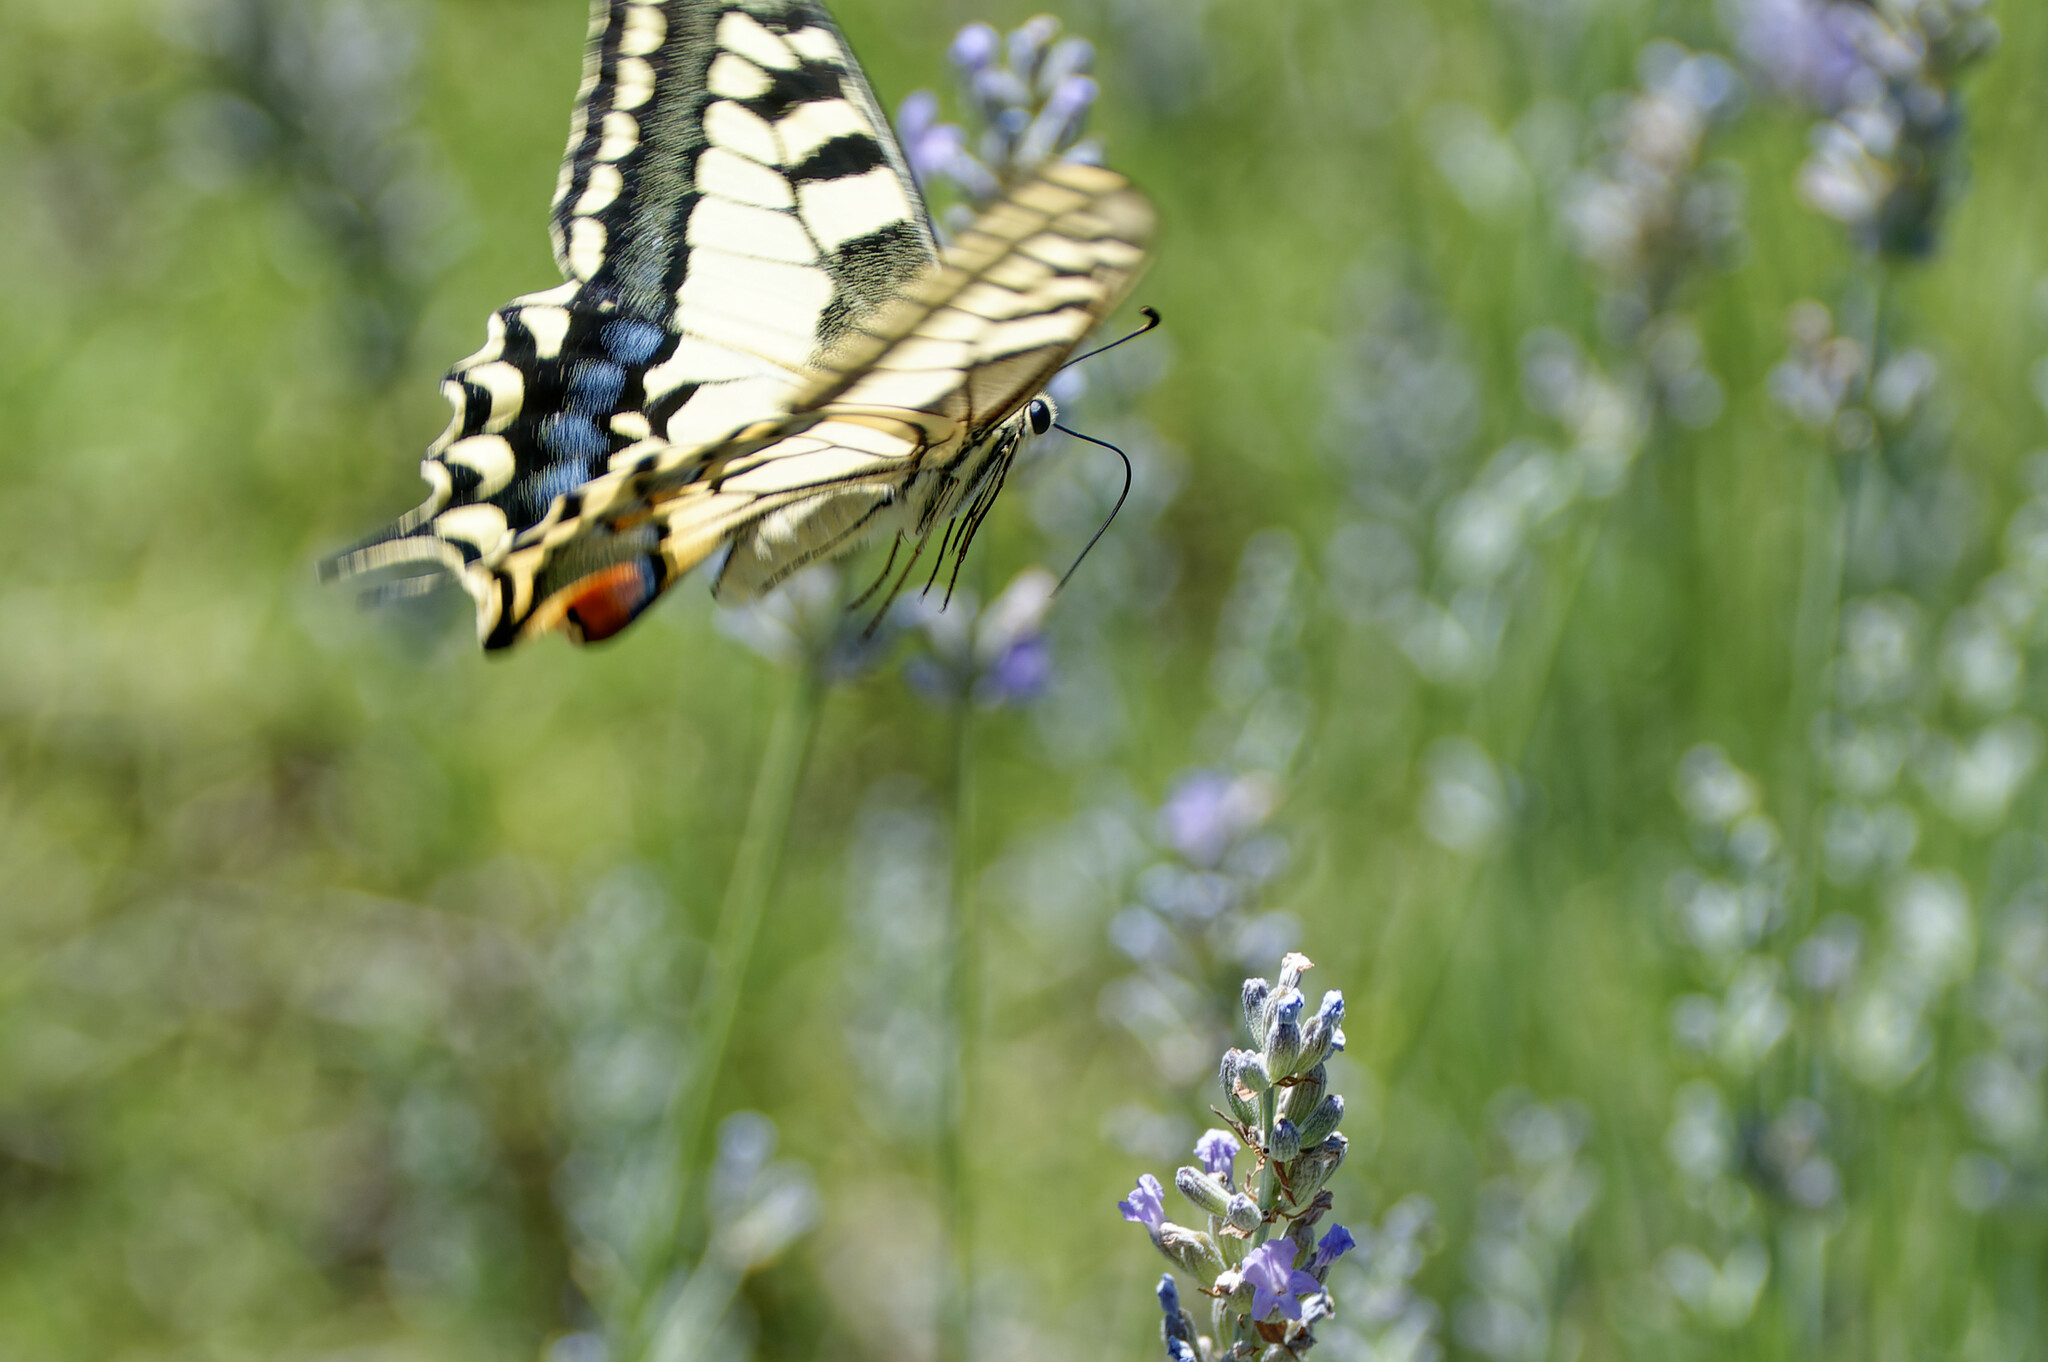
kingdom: Animalia
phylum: Arthropoda
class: Insecta
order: Lepidoptera
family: Papilionidae
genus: Papilio
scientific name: Papilio machaon
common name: Swallowtail
